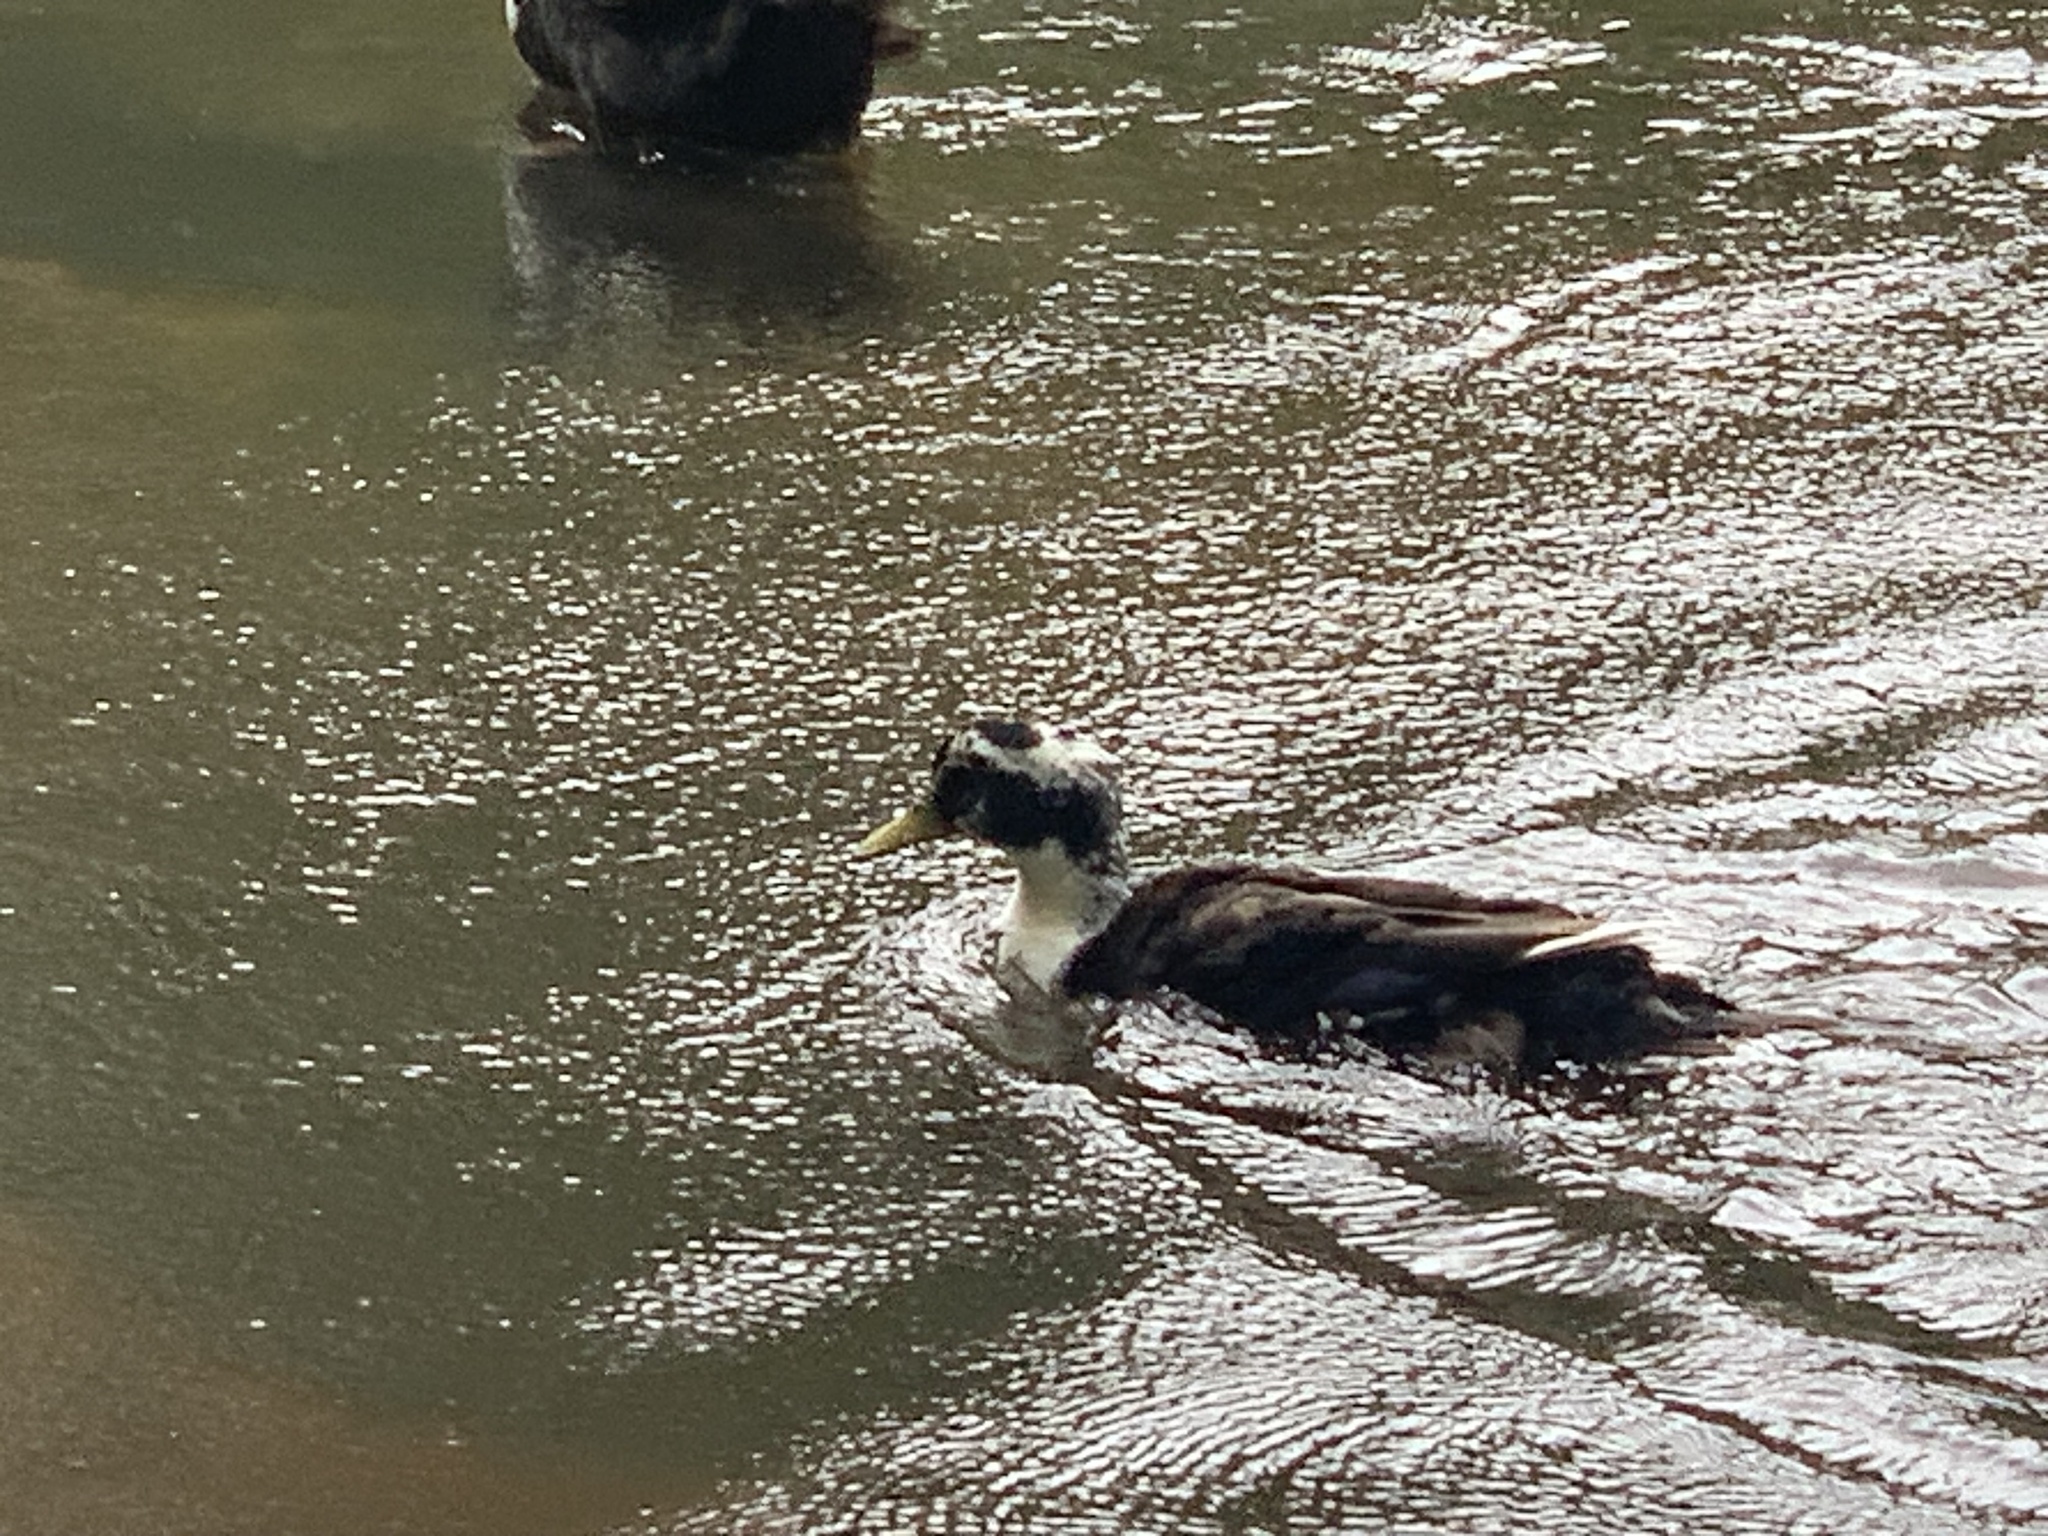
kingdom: Animalia
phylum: Chordata
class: Aves
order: Anseriformes
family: Anatidae
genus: Anas
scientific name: Anas platyrhynchos
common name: Mallard
